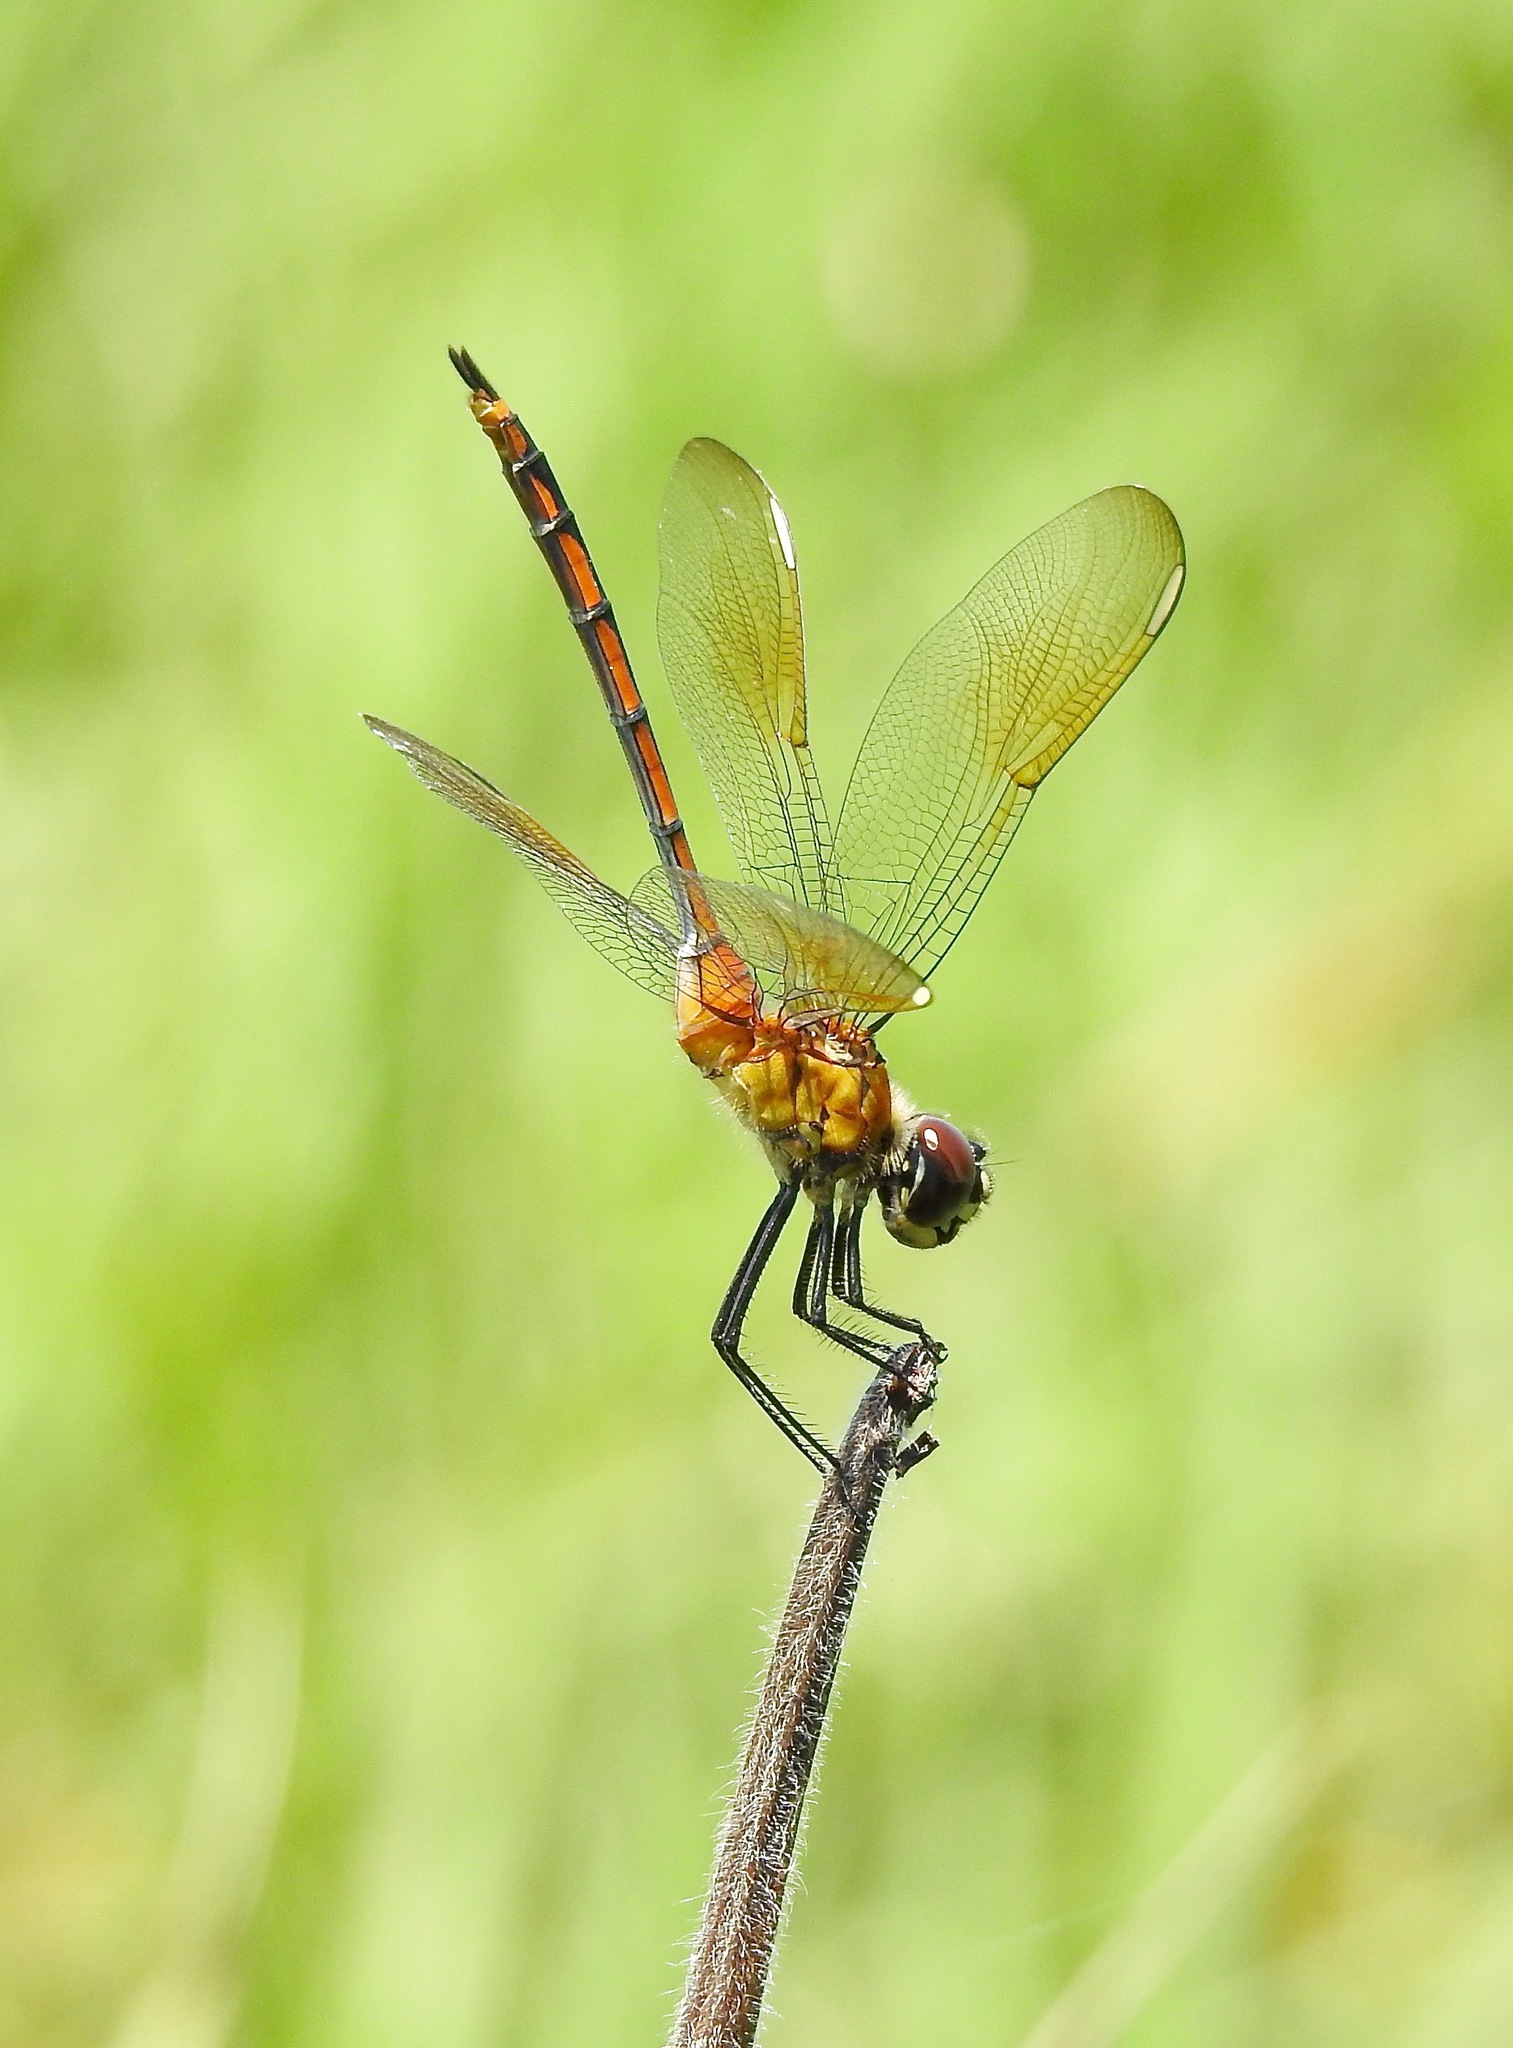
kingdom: Animalia
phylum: Arthropoda
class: Insecta
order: Odonata
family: Libellulidae
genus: Brachymesia
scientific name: Brachymesia gravida
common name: Four-spotted pennant
